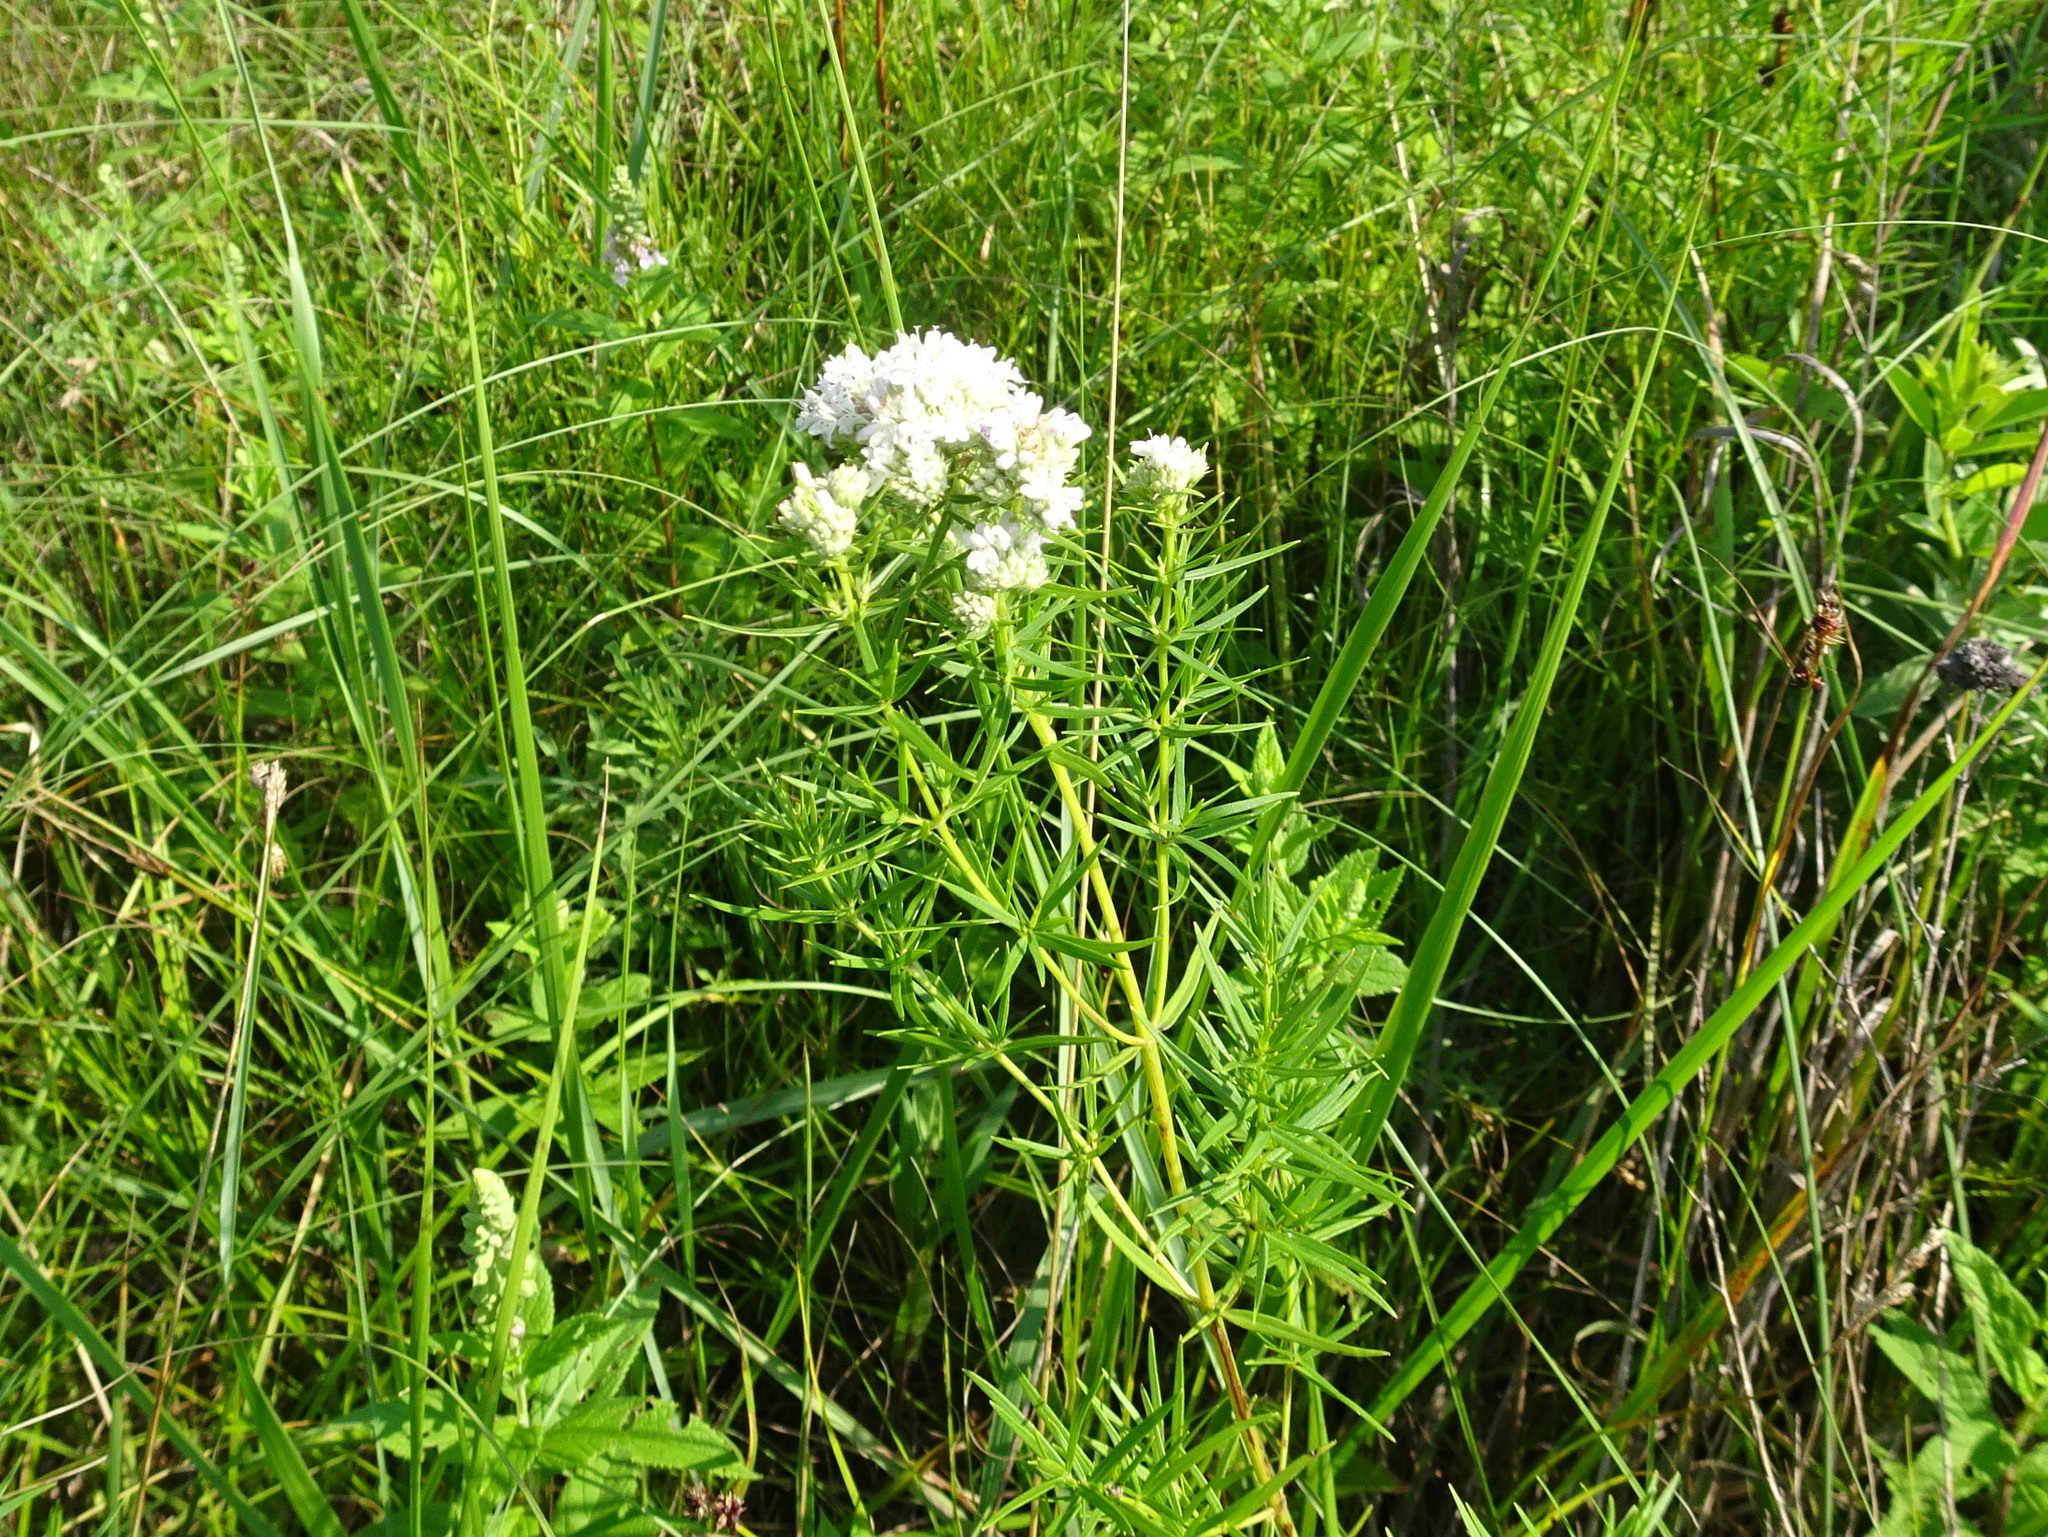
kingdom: Plantae
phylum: Tracheophyta
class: Magnoliopsida
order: Lamiales
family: Lamiaceae
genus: Pycnanthemum
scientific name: Pycnanthemum tenuifolium
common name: Narrow-leaf mountain-mint
